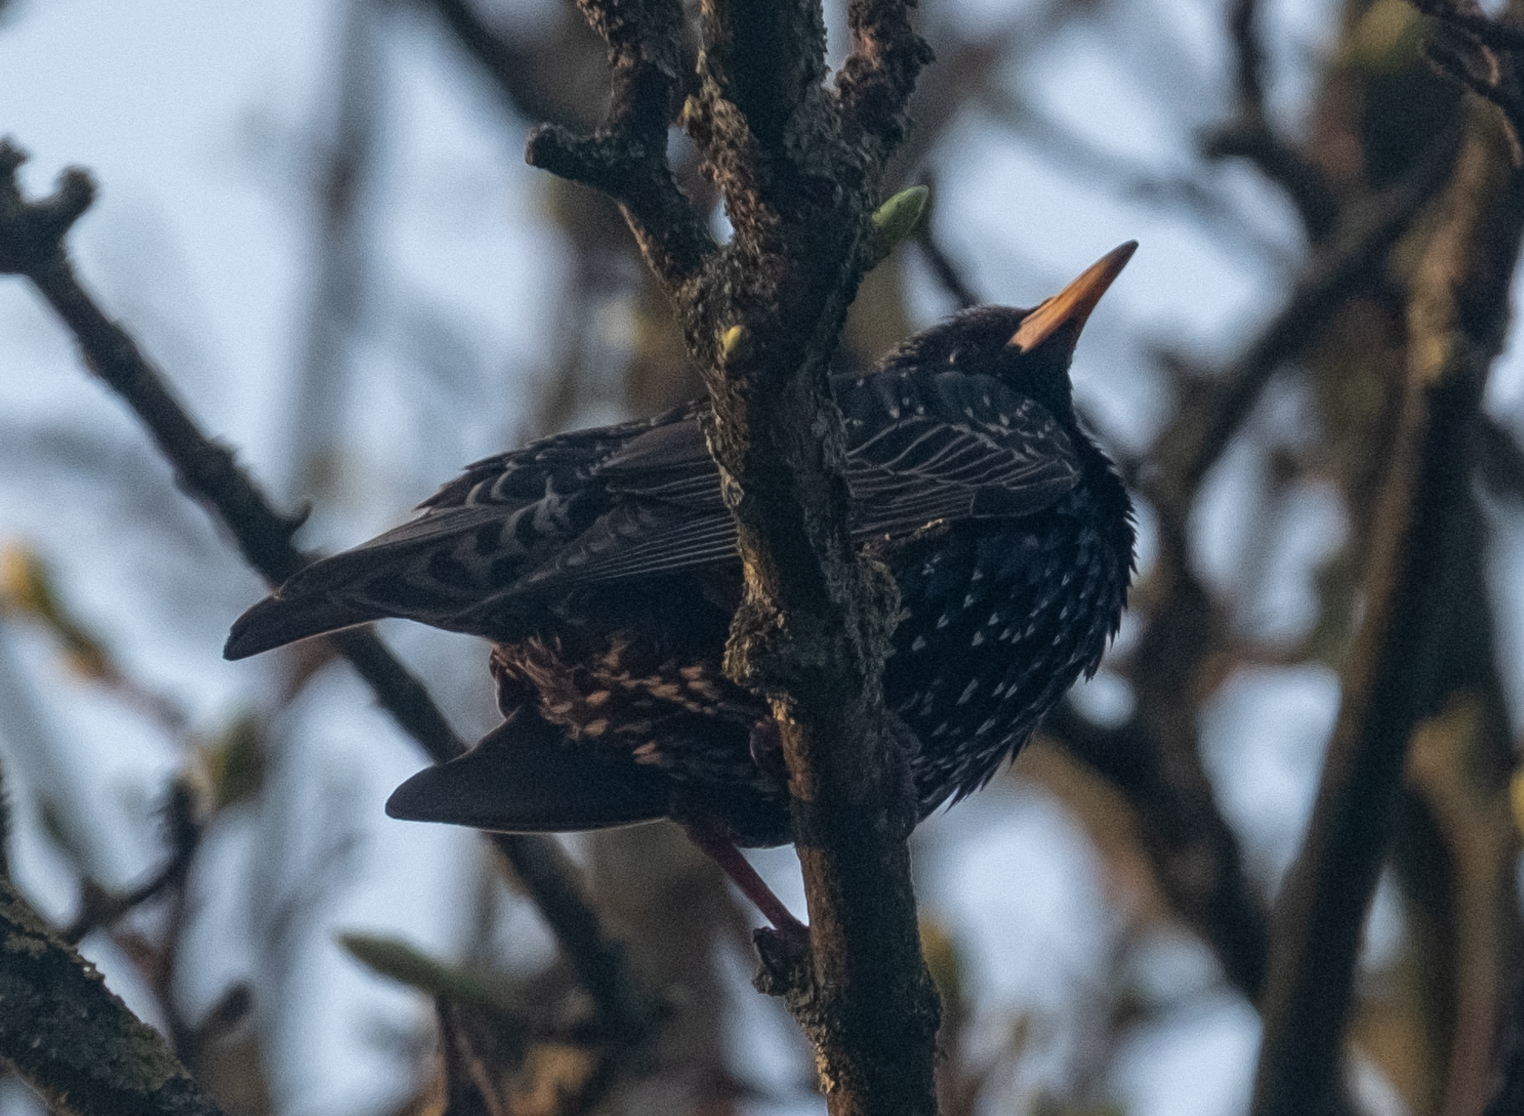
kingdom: Animalia
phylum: Chordata
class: Aves
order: Passeriformes
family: Sturnidae
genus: Sturnus
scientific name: Sturnus vulgaris
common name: Common starling
